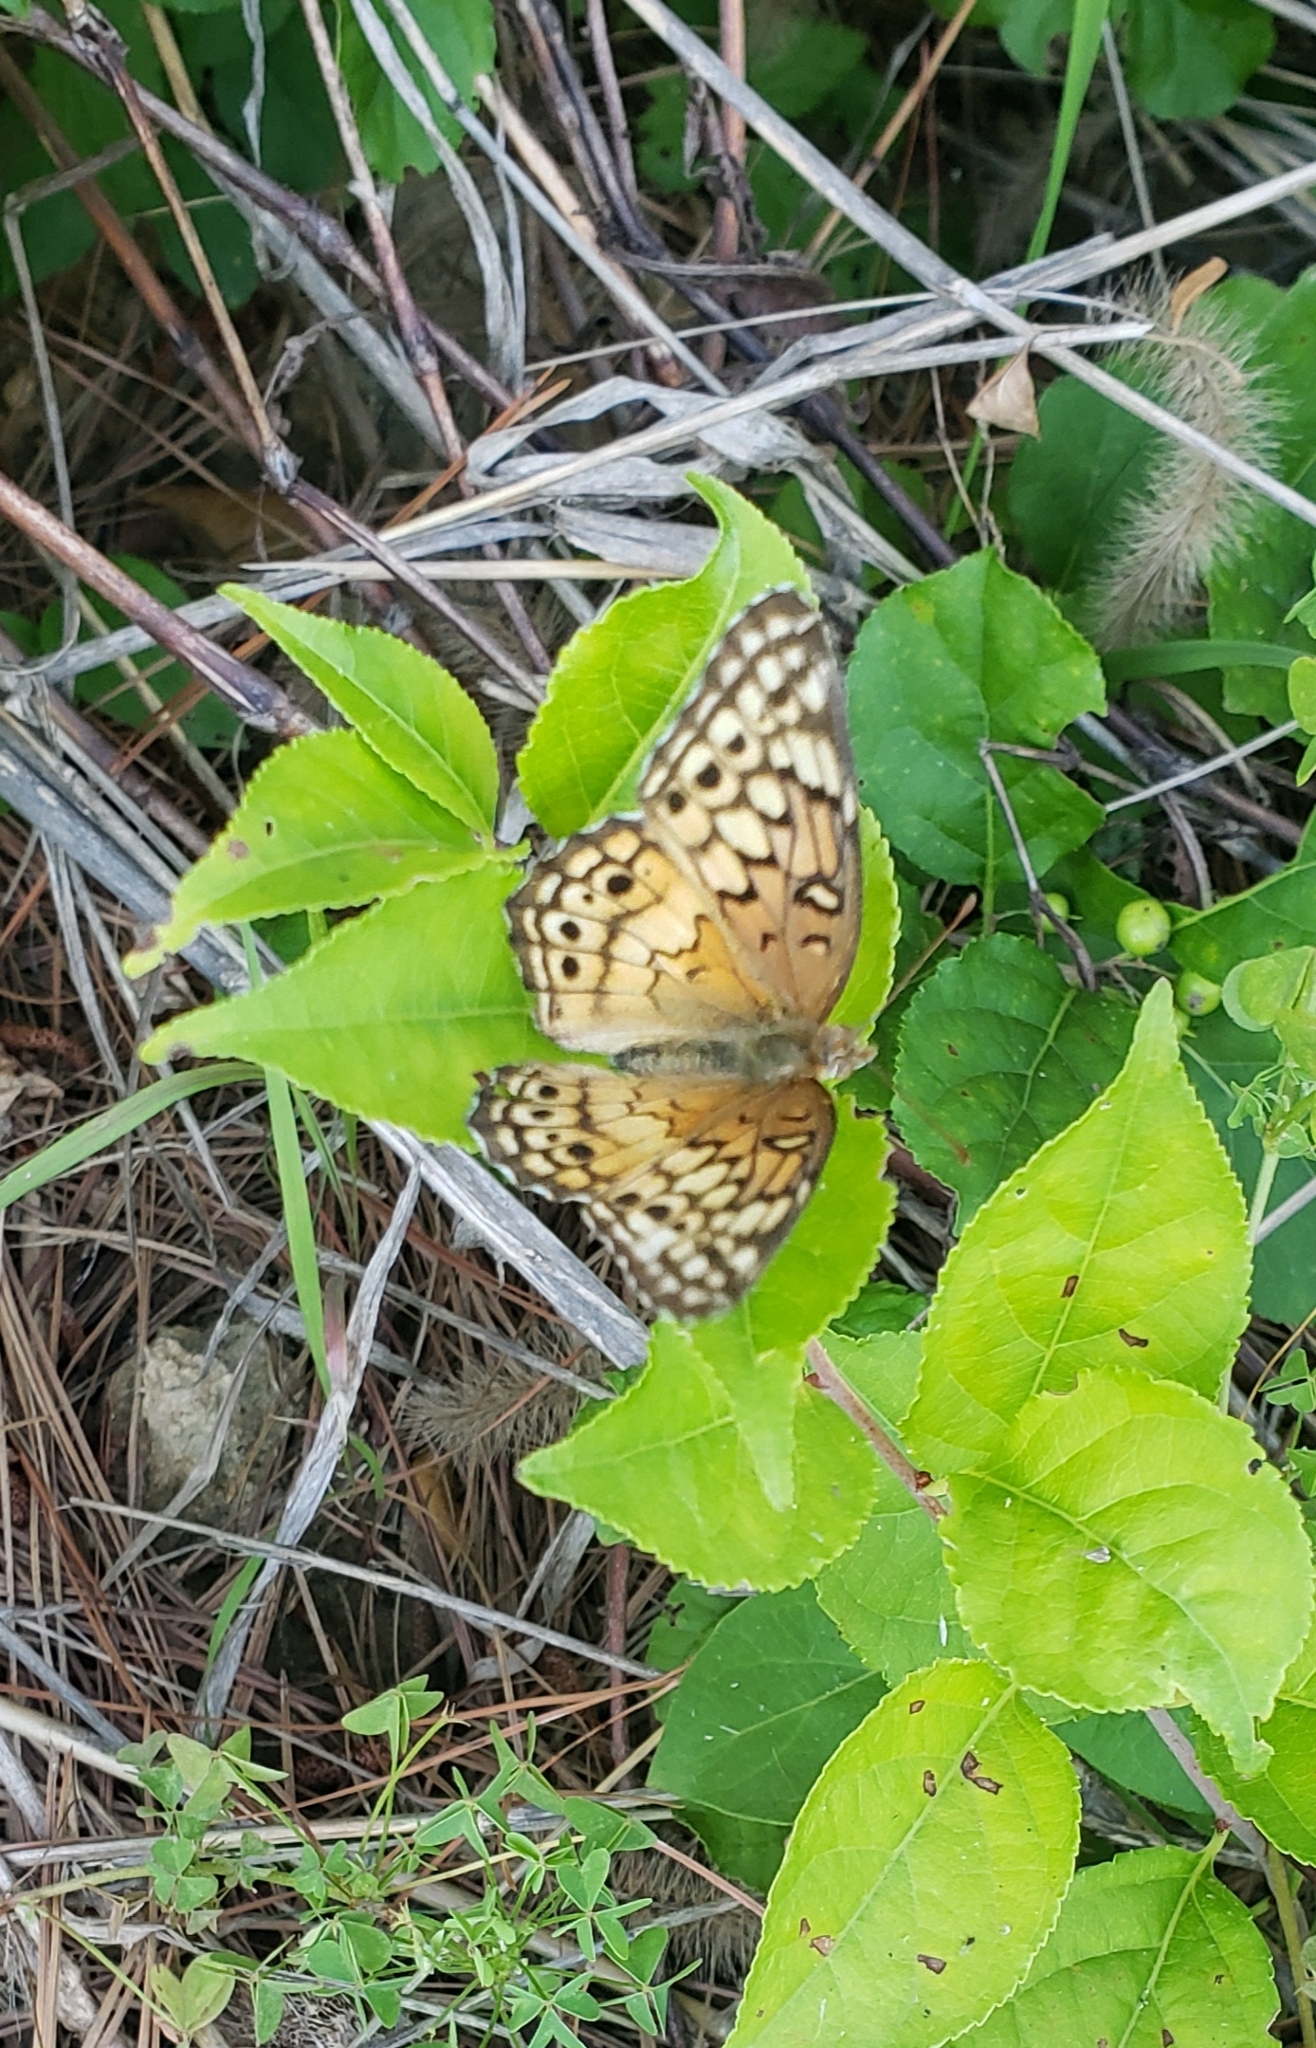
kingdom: Animalia
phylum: Arthropoda
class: Insecta
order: Lepidoptera
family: Nymphalidae
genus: Euptoieta
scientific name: Euptoieta claudia
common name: Variegated fritillary
